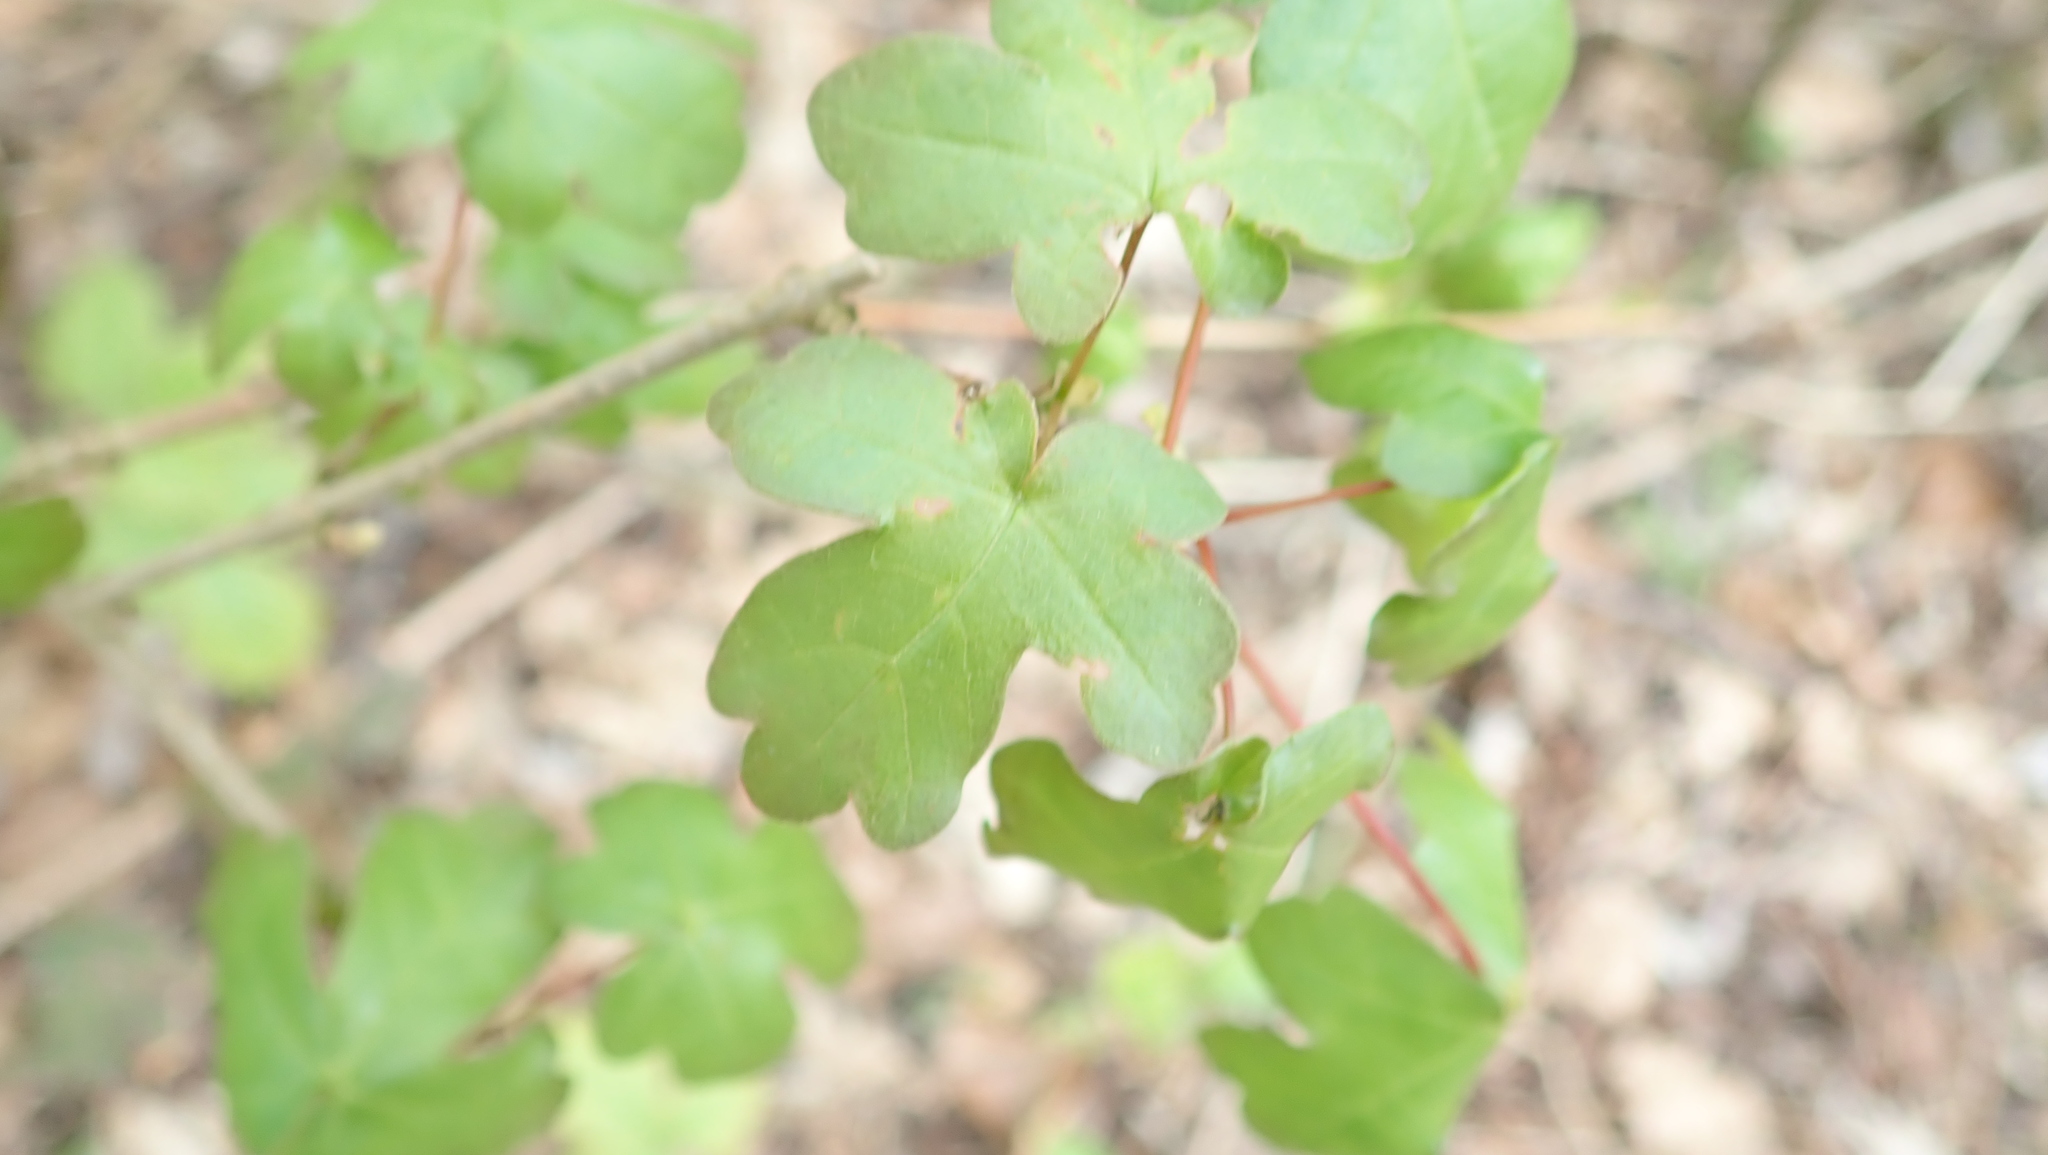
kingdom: Plantae
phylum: Tracheophyta
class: Magnoliopsida
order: Sapindales
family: Sapindaceae
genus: Acer
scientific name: Acer campestre
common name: Field maple
